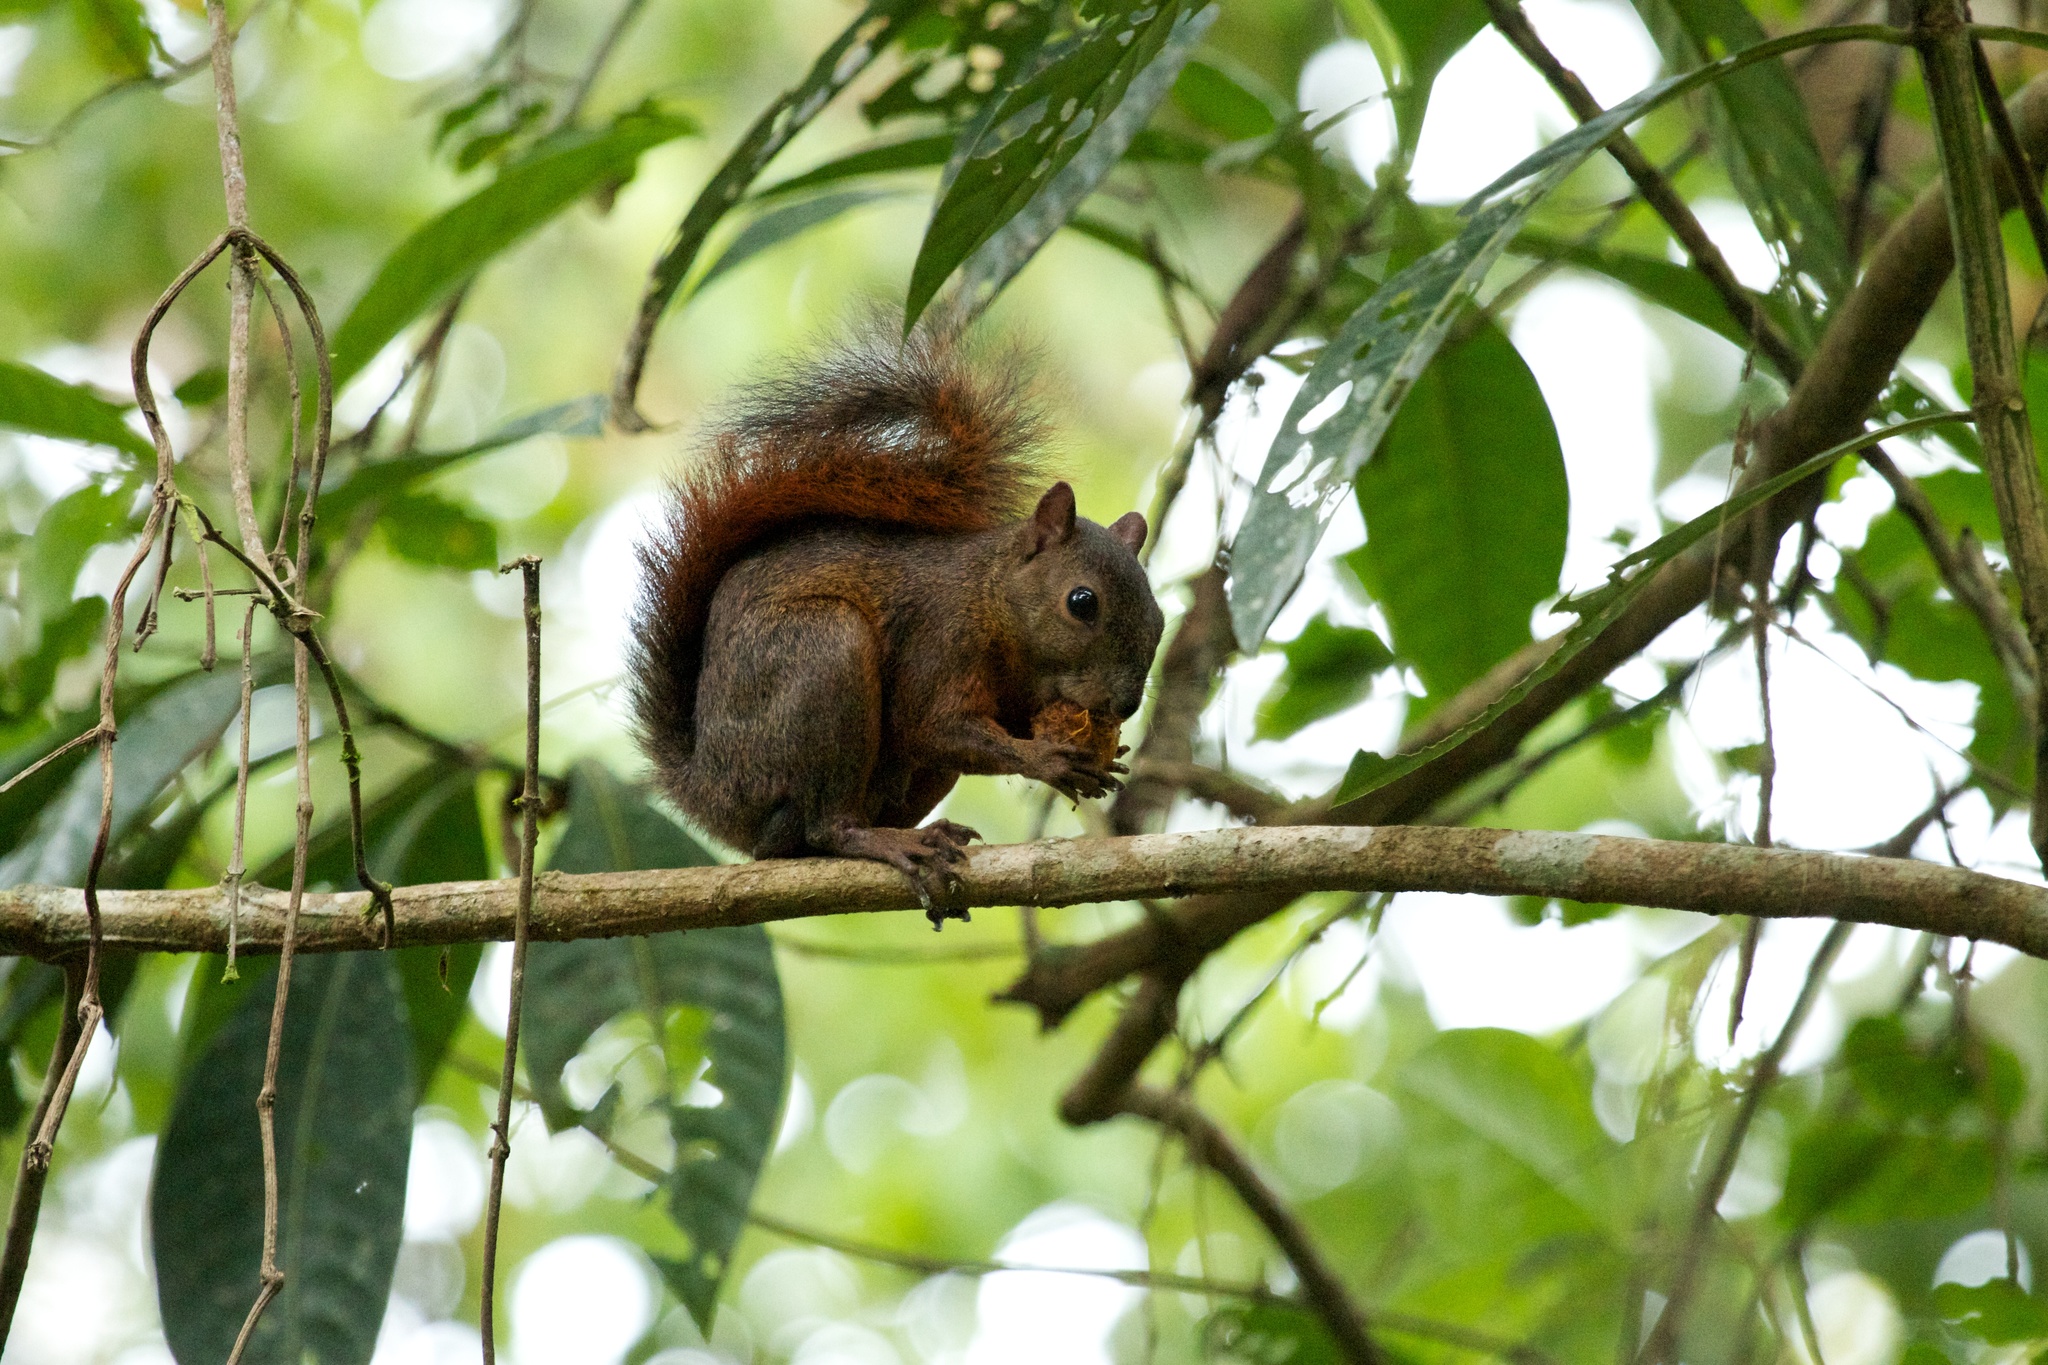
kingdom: Animalia
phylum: Chordata
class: Mammalia
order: Rodentia
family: Sciuridae
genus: Sciurus
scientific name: Sciurus granatensis
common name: Red-tailed squirrel
